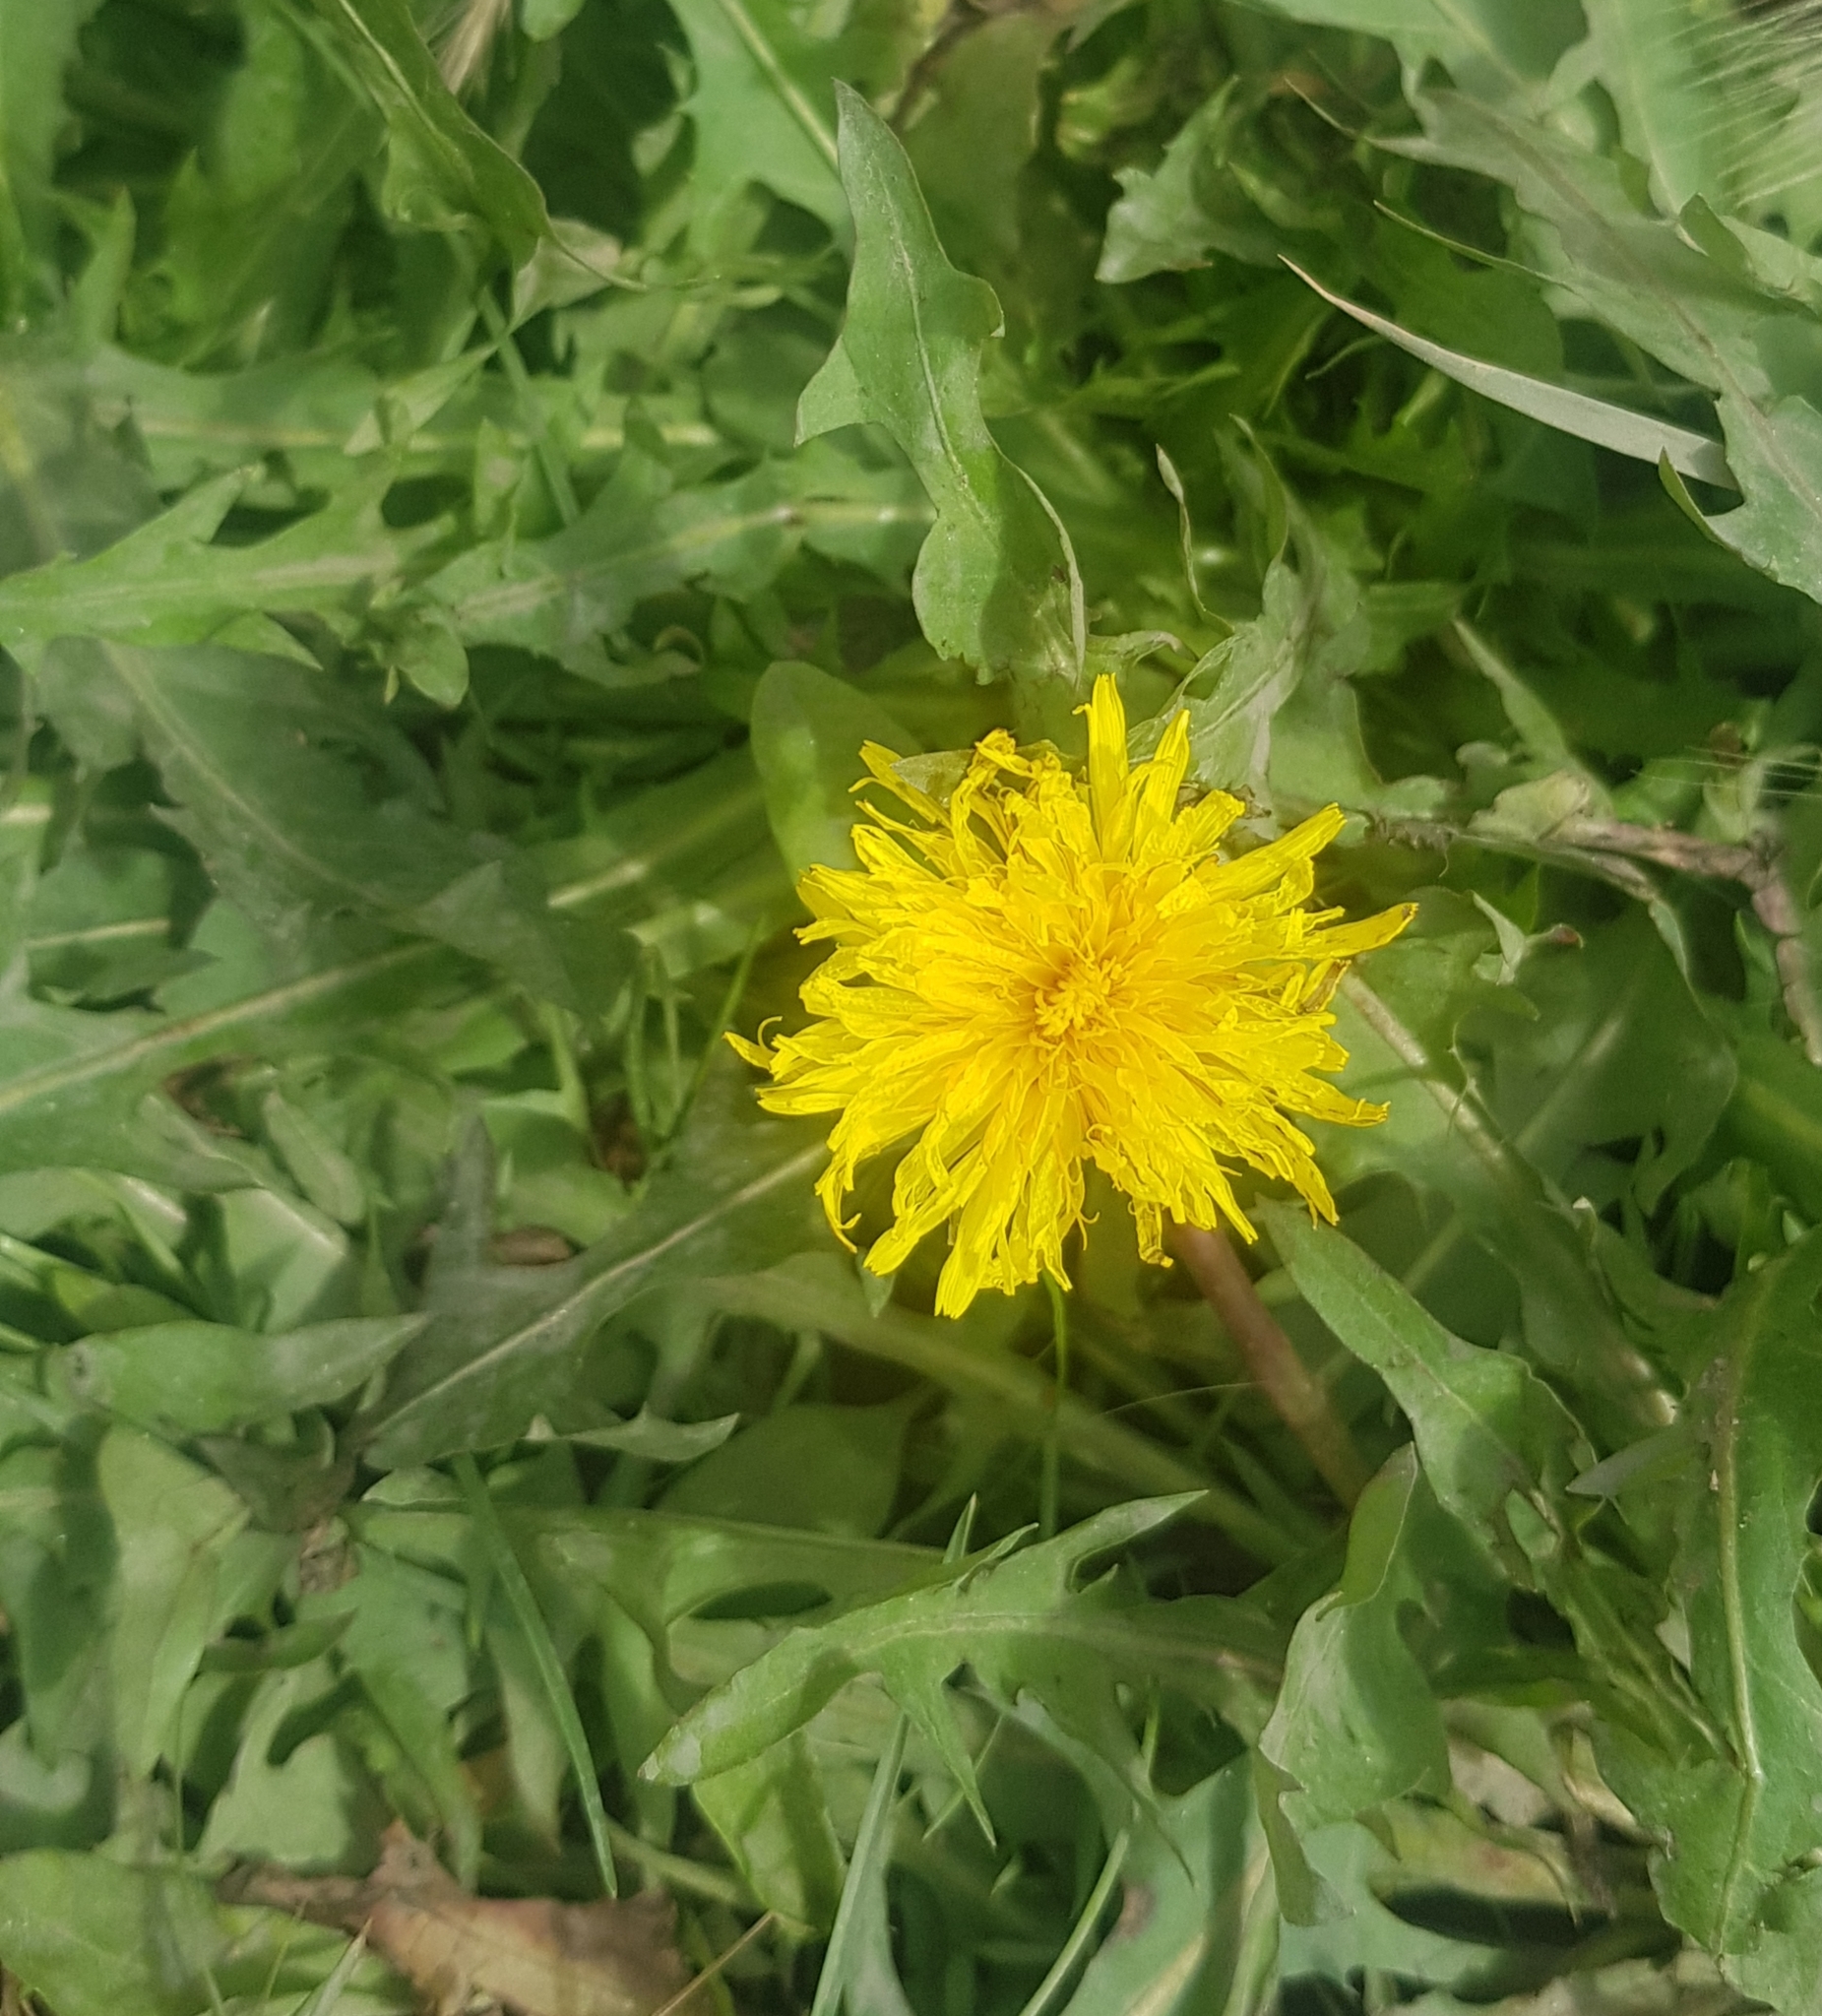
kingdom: Plantae
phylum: Tracheophyta
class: Magnoliopsida
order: Asterales
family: Asteraceae
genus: Taraxacum
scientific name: Taraxacum officinale
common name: Common dandelion
